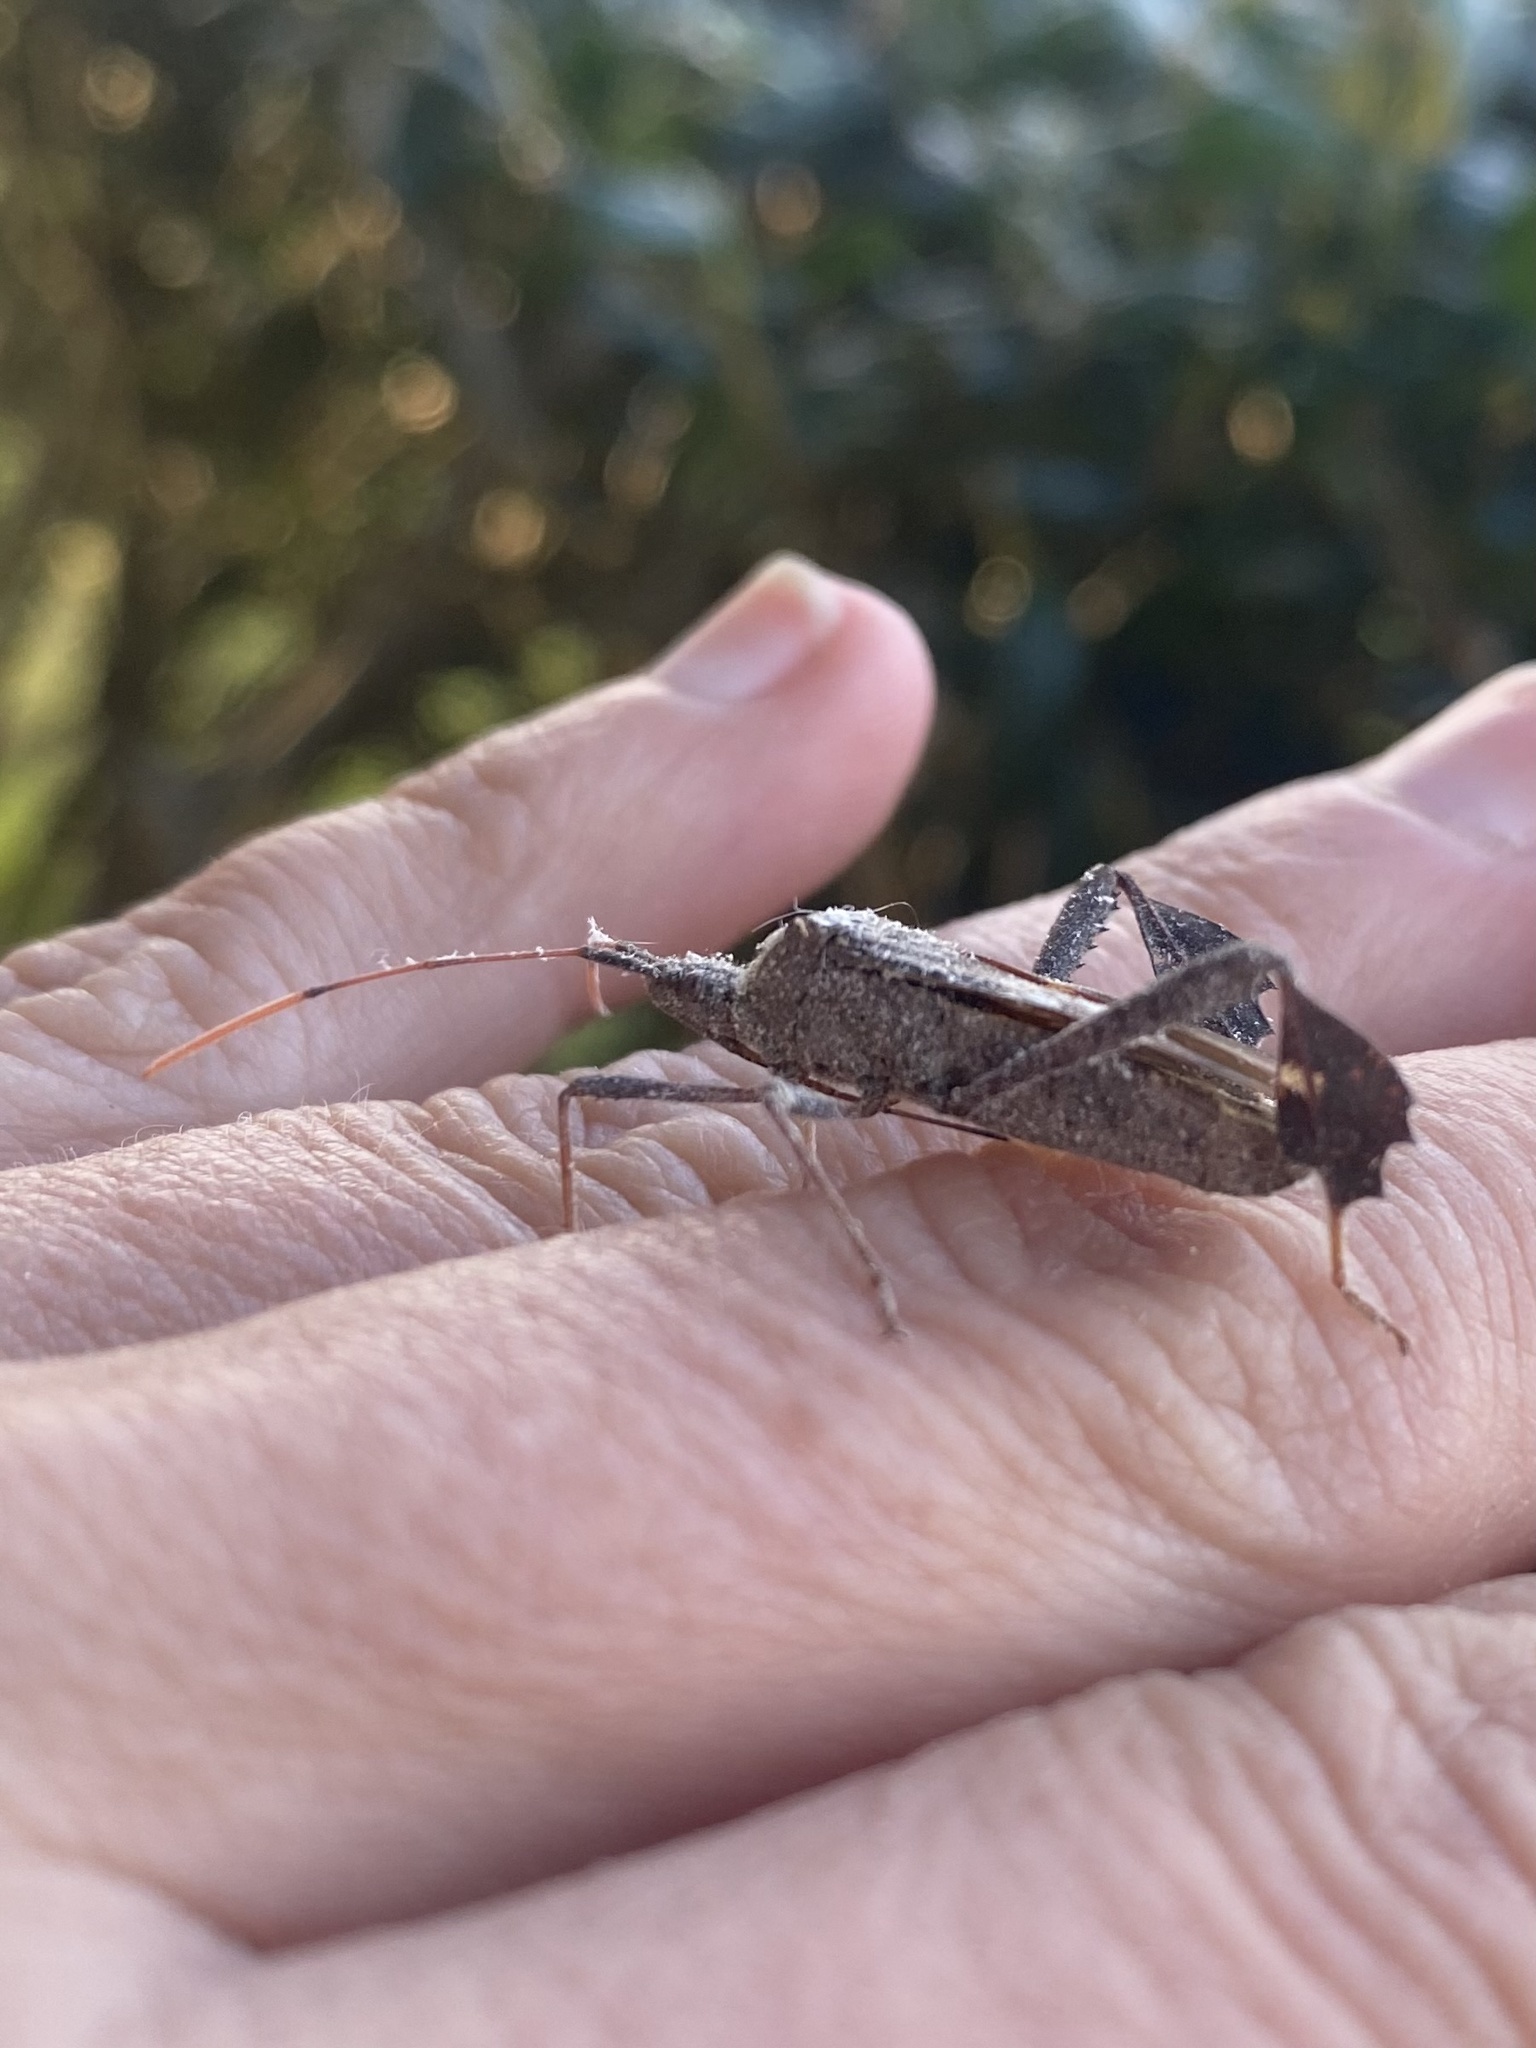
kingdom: Animalia
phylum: Arthropoda
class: Insecta
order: Hemiptera
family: Coreidae
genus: Leptoglossus
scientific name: Leptoglossus zonatus
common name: Large-legged bug
